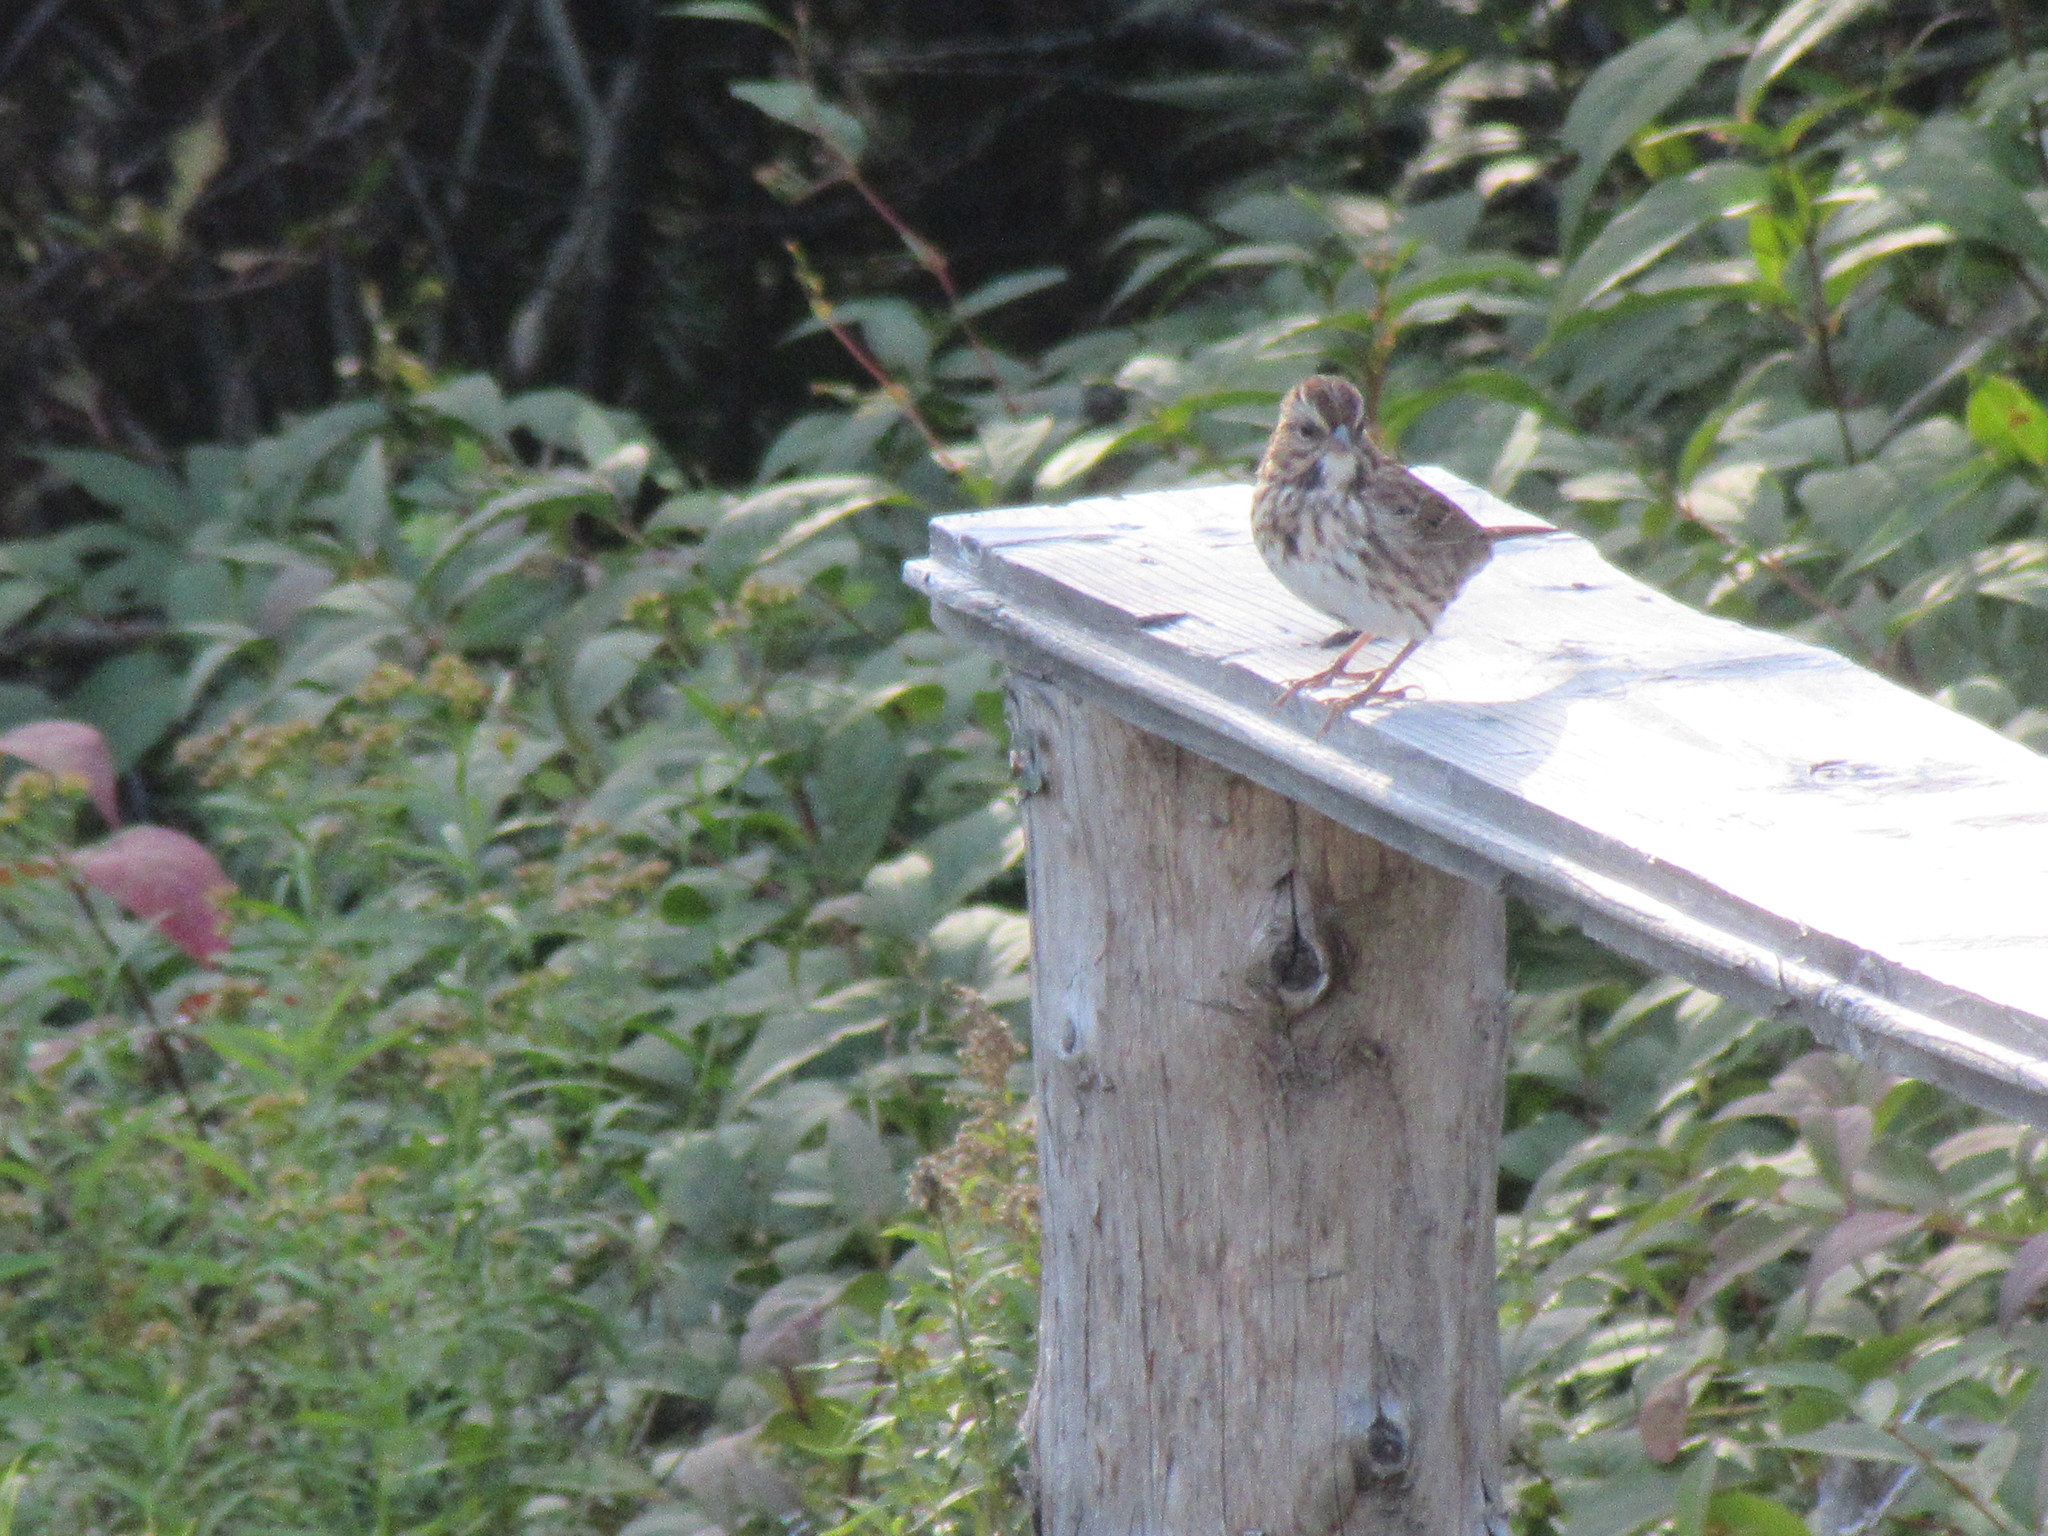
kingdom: Animalia
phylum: Chordata
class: Aves
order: Passeriformes
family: Passerellidae
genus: Melospiza
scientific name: Melospiza melodia
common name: Song sparrow
